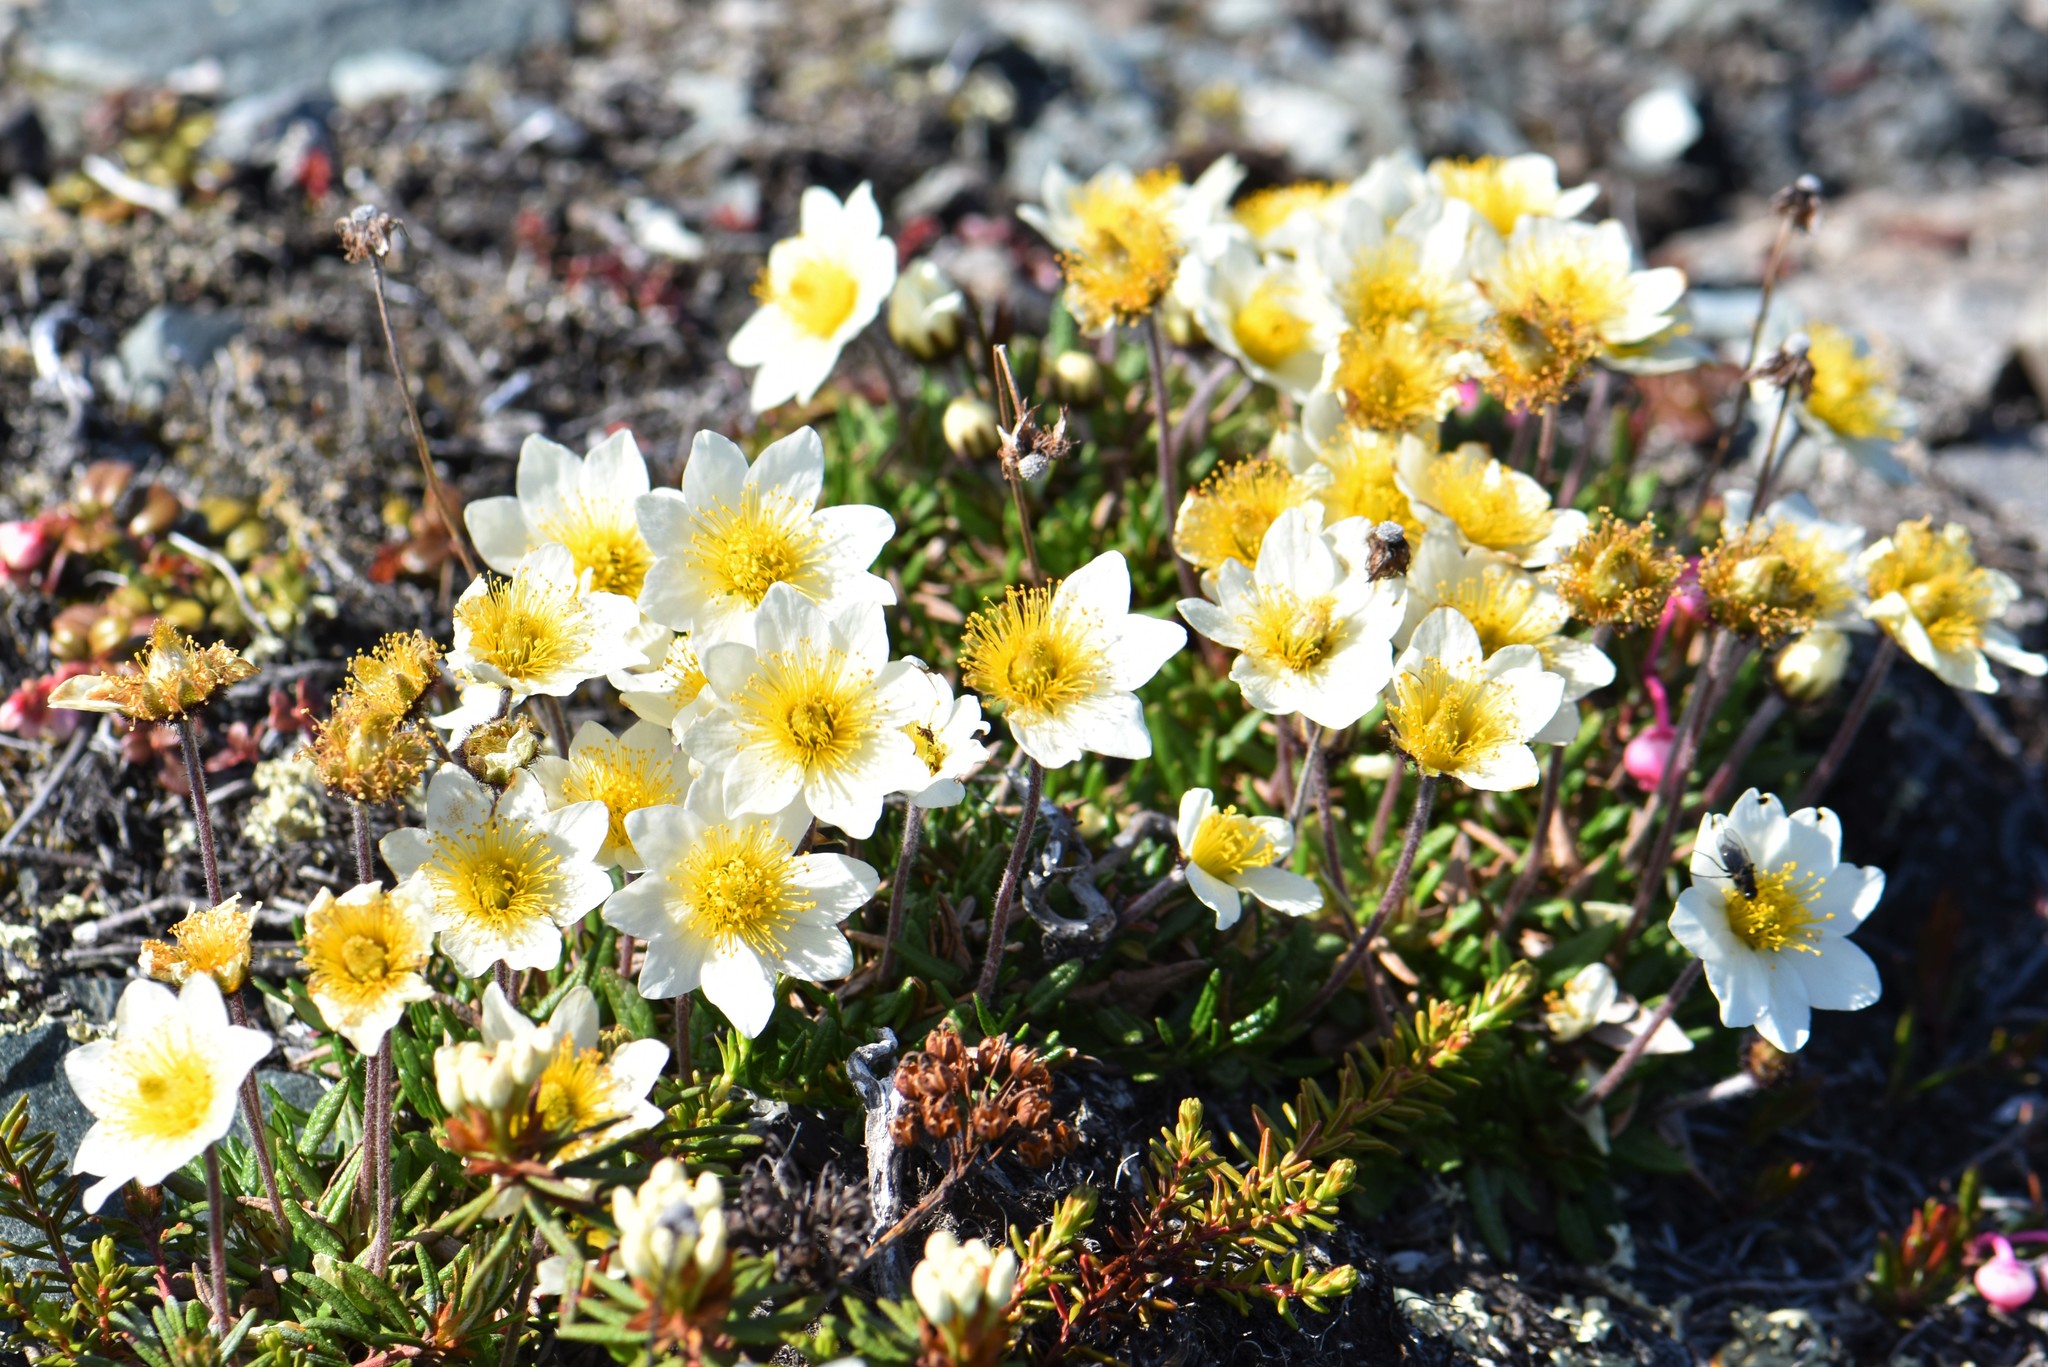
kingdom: Plantae
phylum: Tracheophyta
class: Magnoliopsida
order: Rosales
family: Rosaceae
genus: Dryas
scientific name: Dryas integrifolia
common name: Entire-leaved mountain avens
